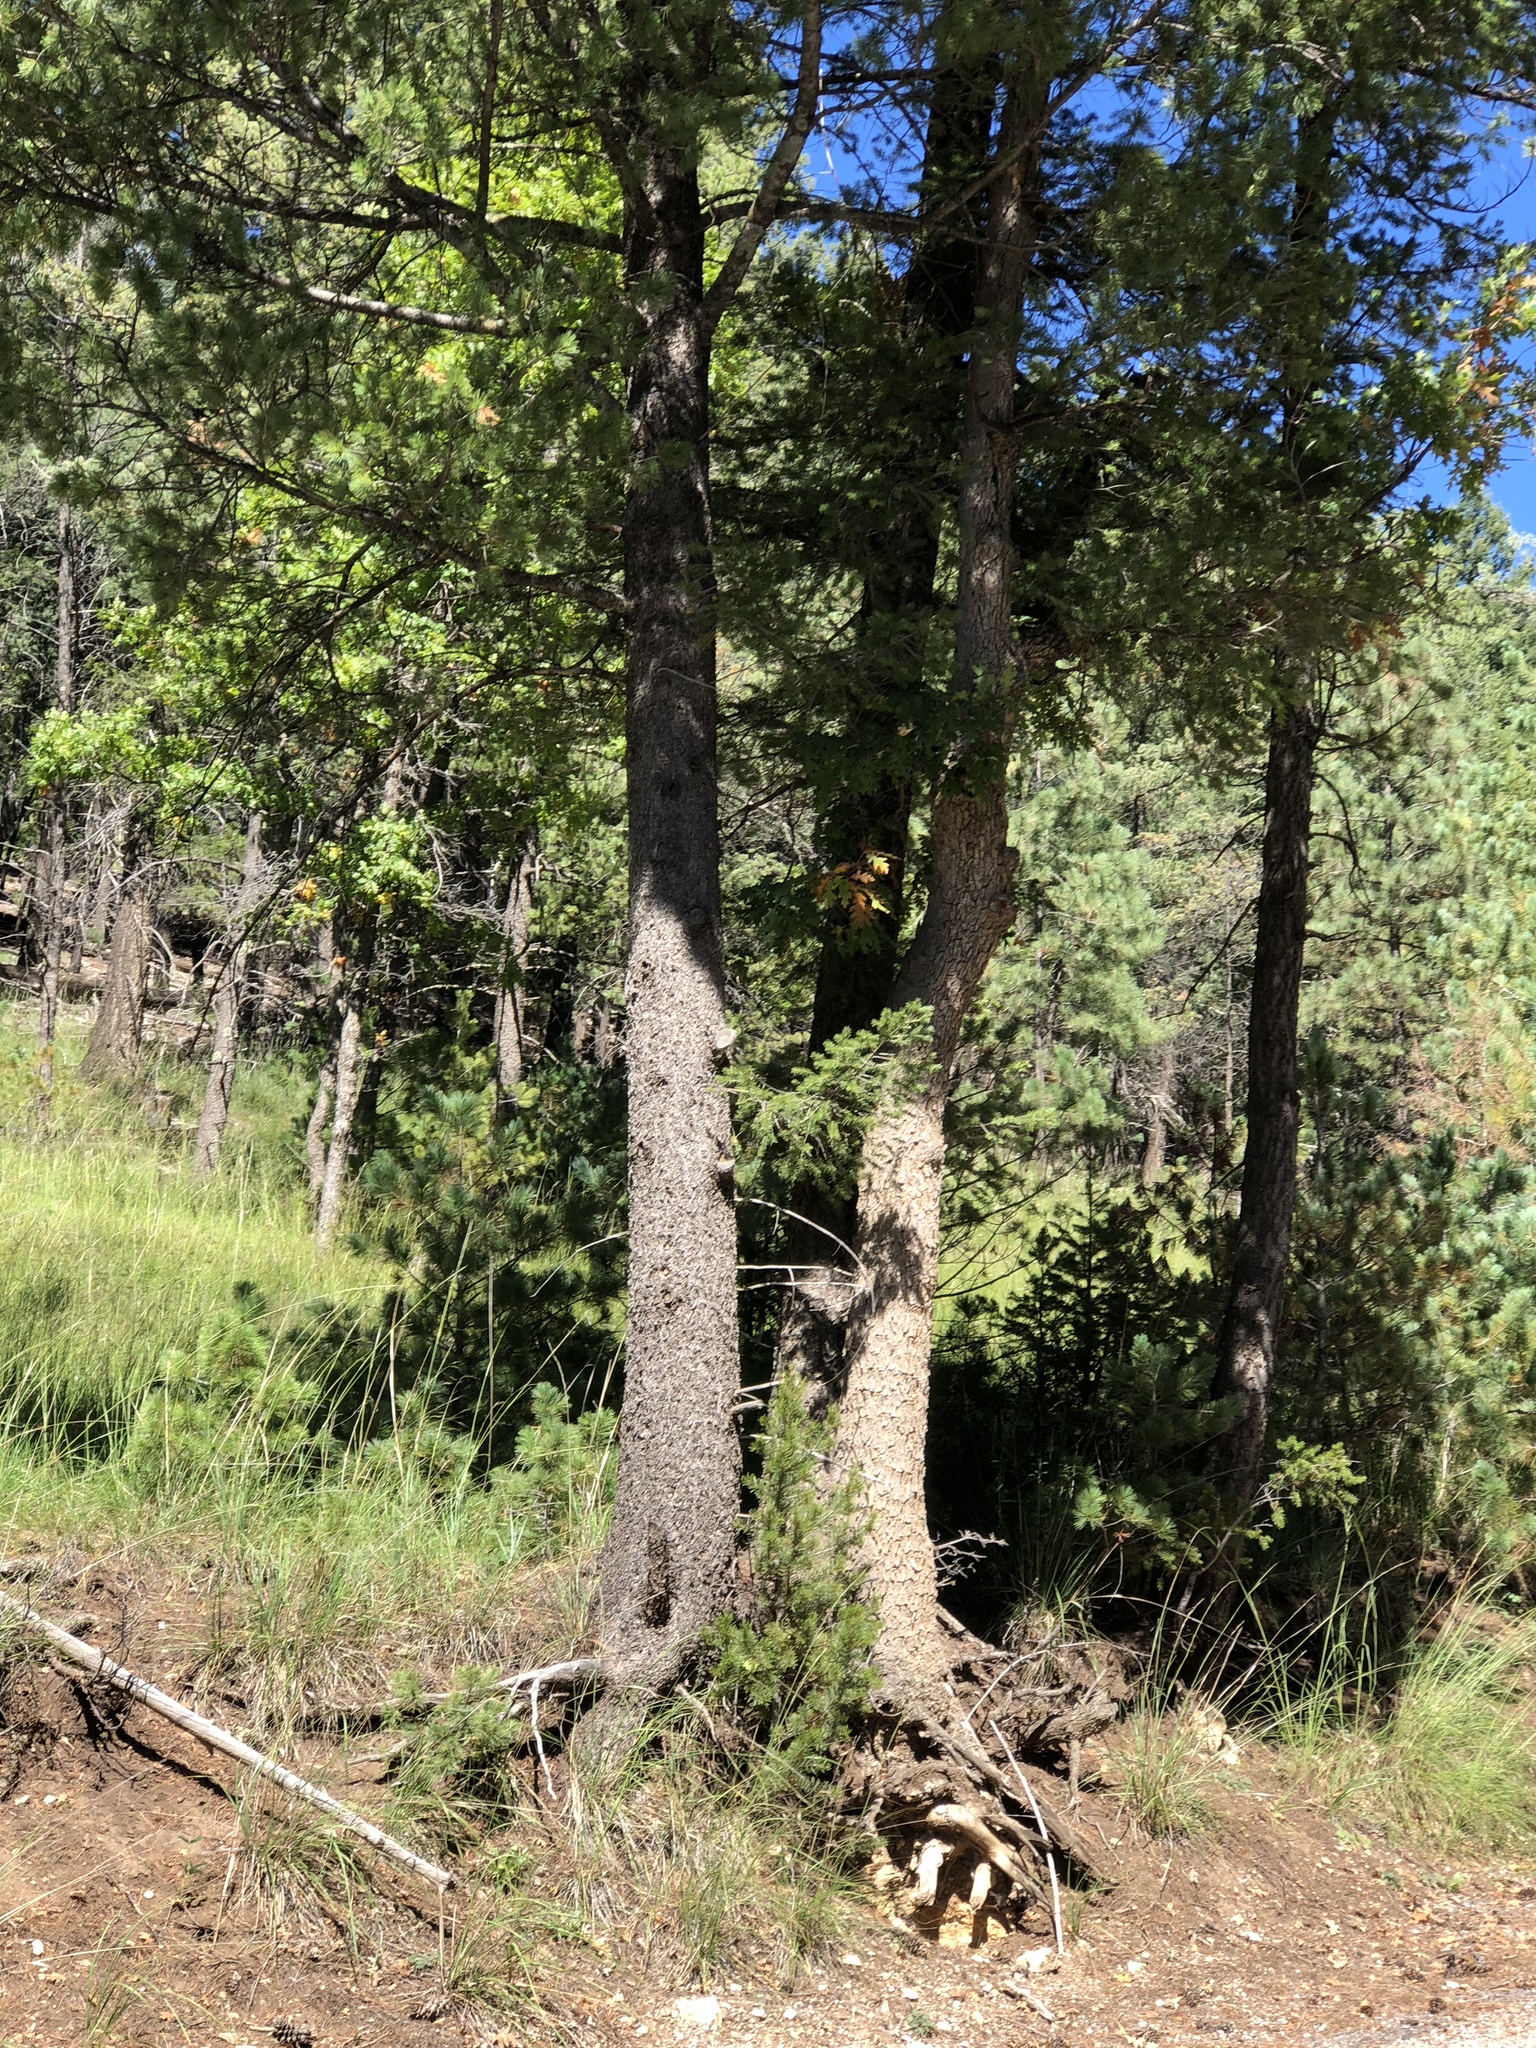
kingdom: Plantae
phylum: Tracheophyta
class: Pinopsida
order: Pinales
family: Pinaceae
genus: Pinus
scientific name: Pinus strobiformis
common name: Southwestern white pine
